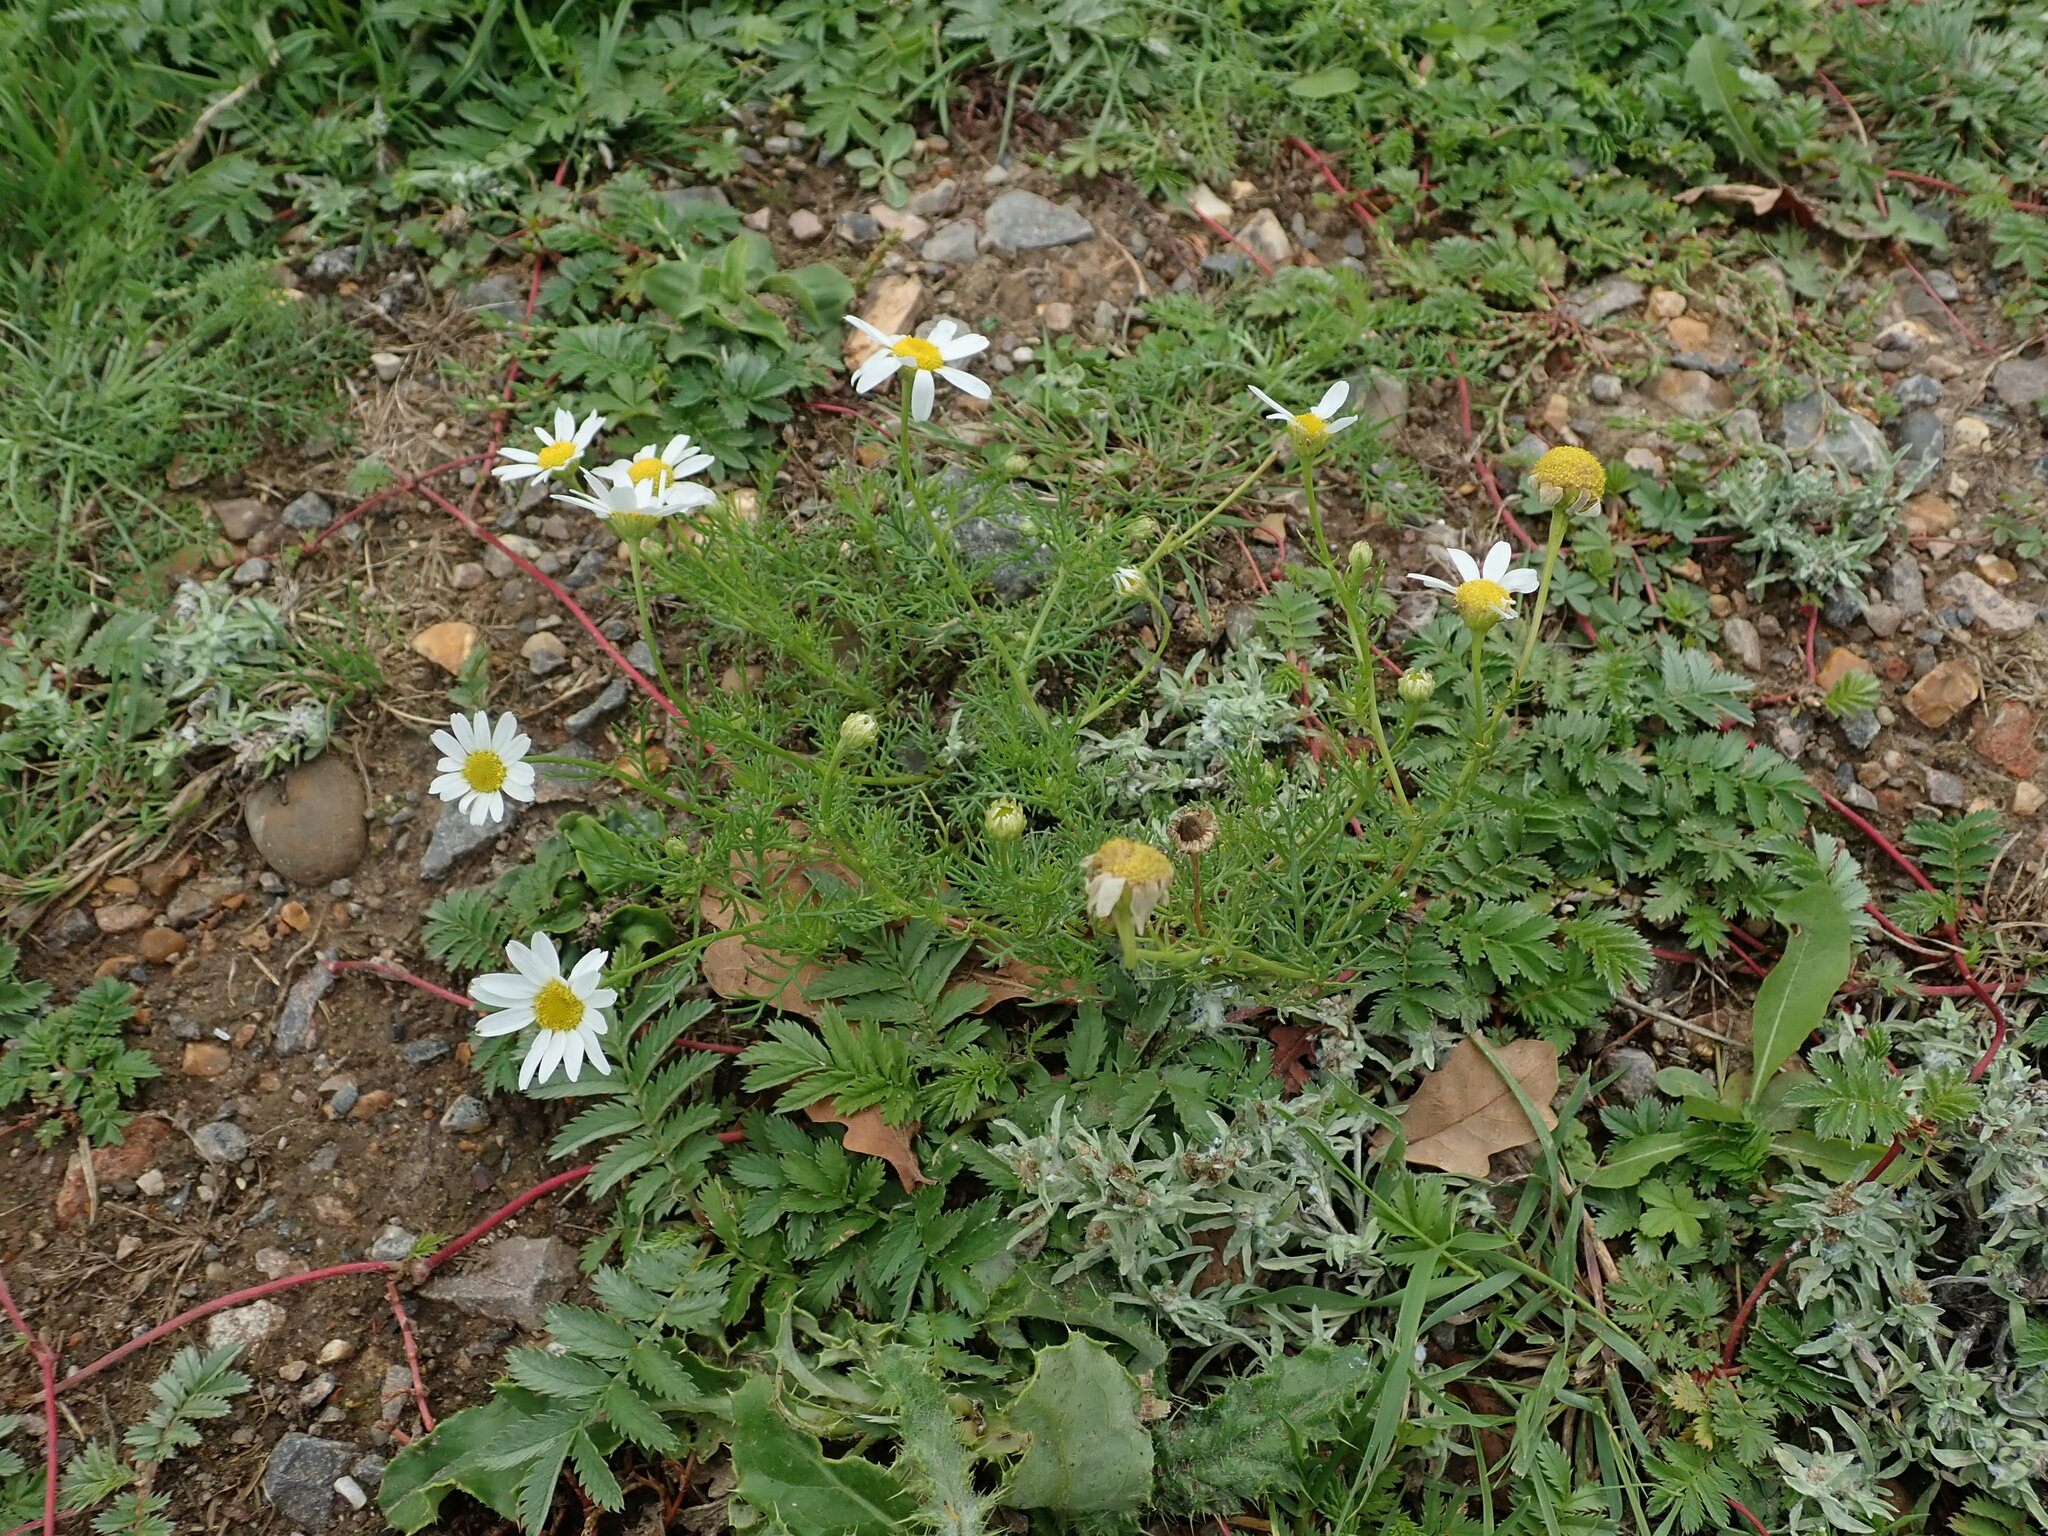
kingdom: Plantae
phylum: Tracheophyta
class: Magnoliopsida
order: Asterales
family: Asteraceae
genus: Tripleurospermum
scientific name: Tripleurospermum inodorum
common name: Scentless mayweed
